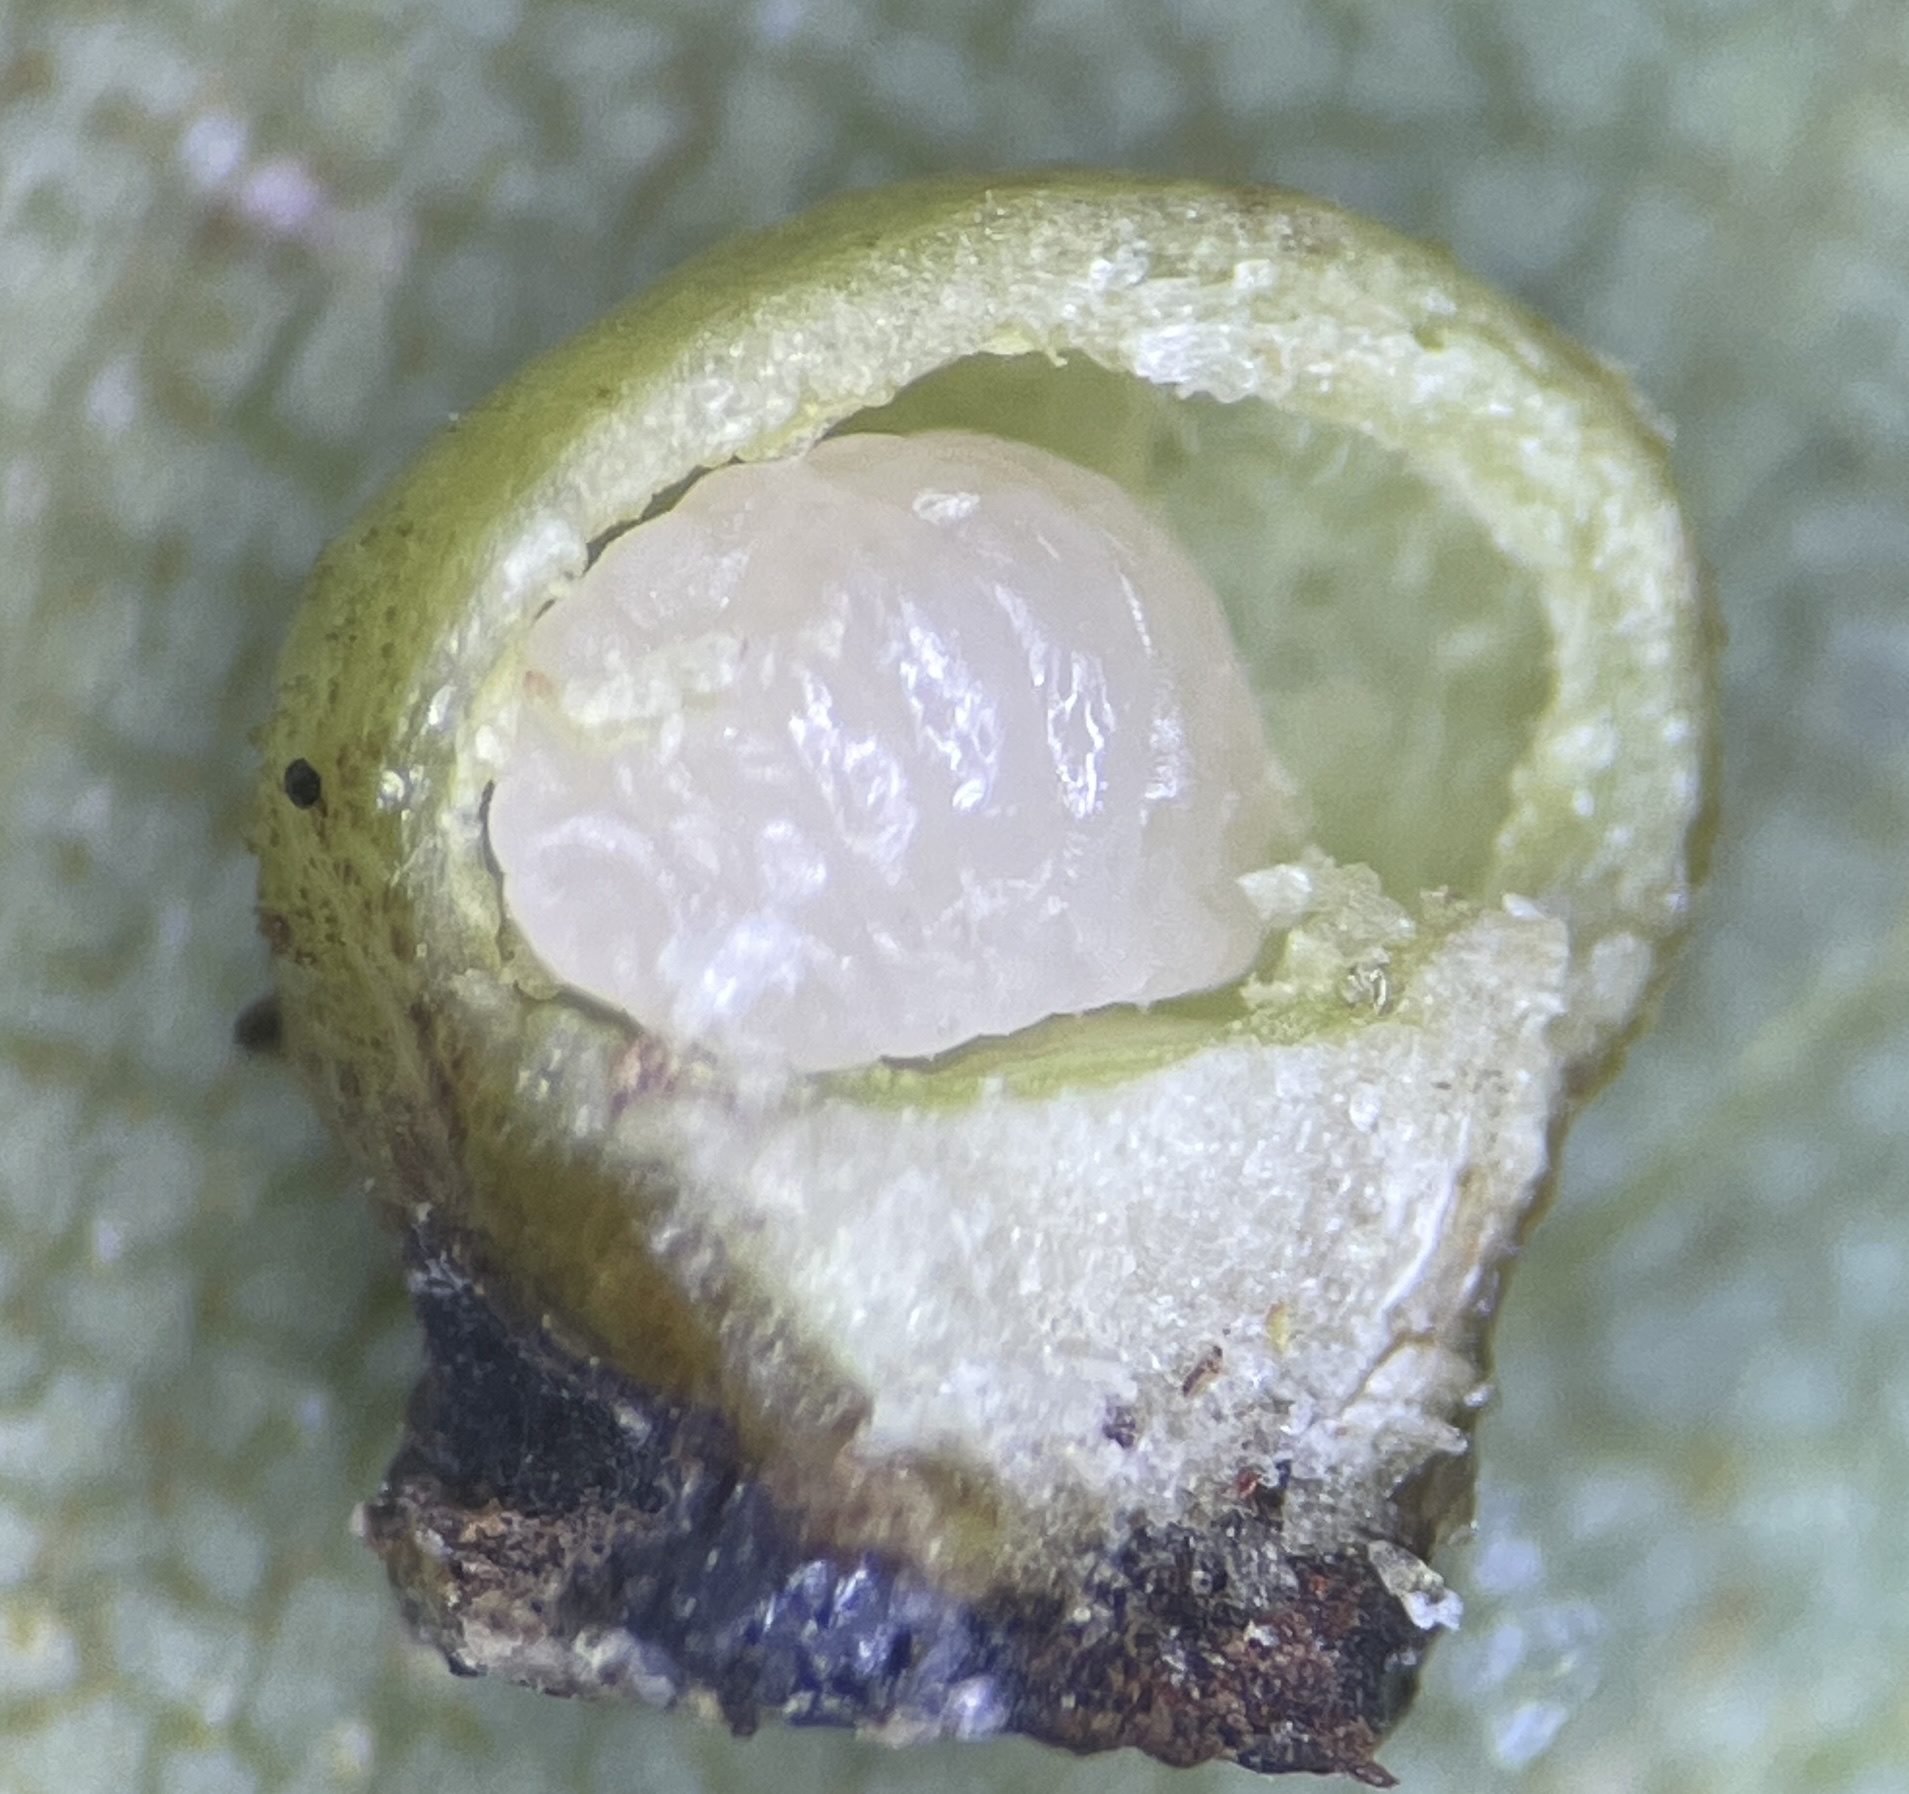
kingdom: Animalia
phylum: Arthropoda
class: Insecta
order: Diptera
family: Cecidomyiidae
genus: Caryomyia
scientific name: Caryomyia caryae
